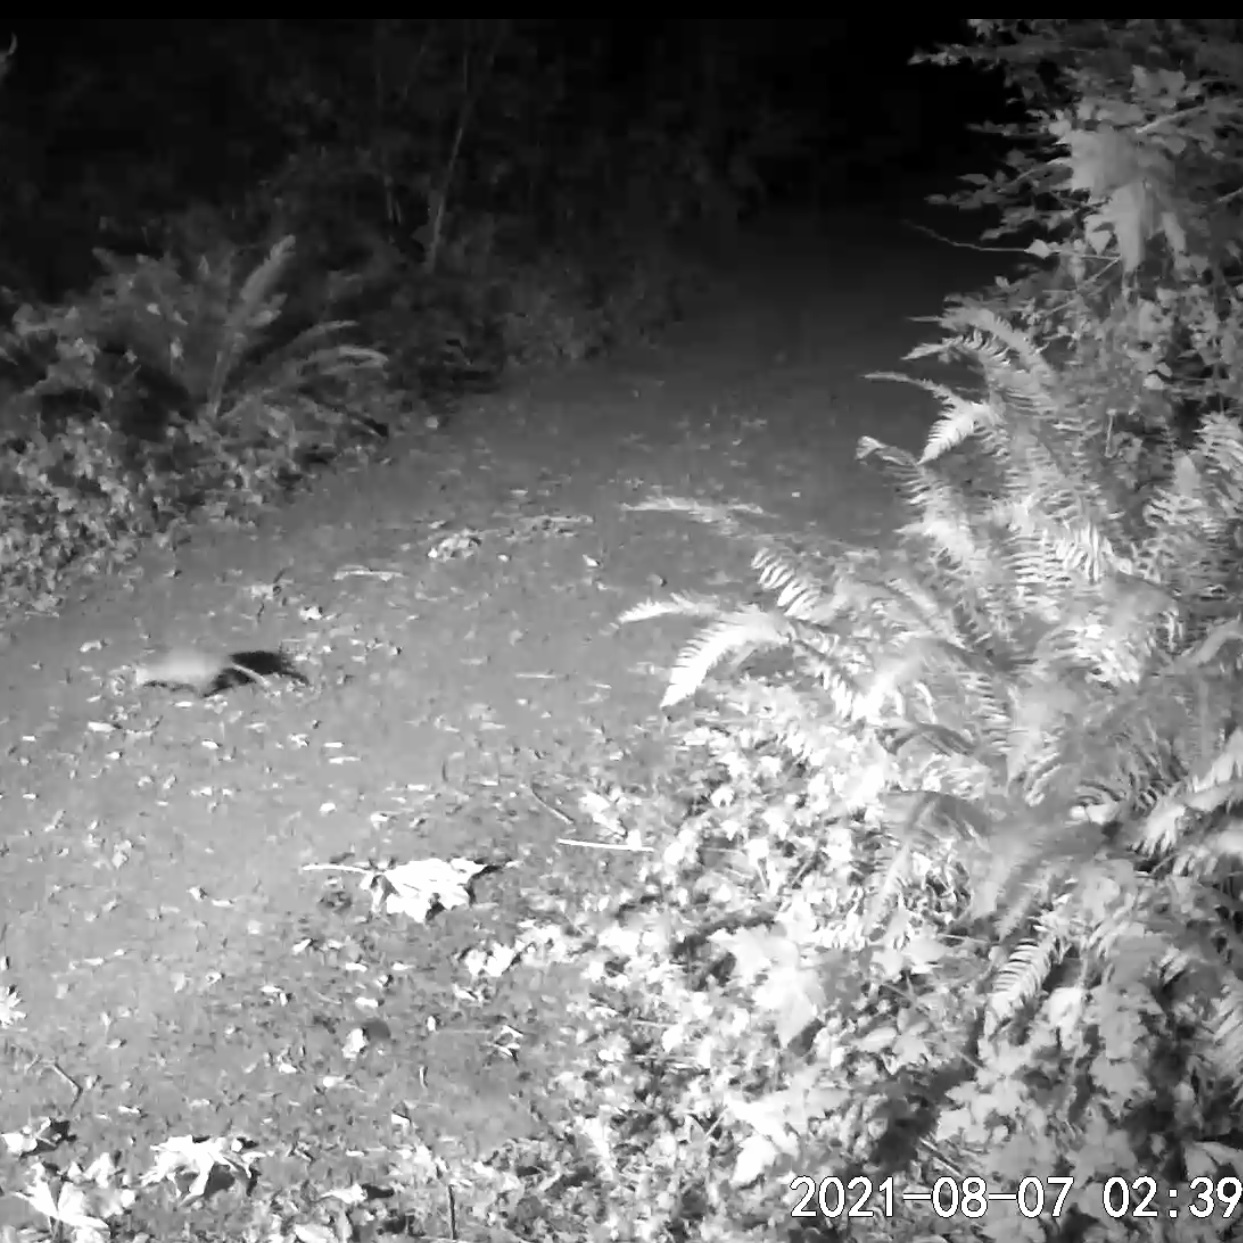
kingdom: Animalia
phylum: Chordata
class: Mammalia
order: Didelphimorphia
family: Didelphidae
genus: Didelphis
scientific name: Didelphis virginiana
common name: Virginia opossum
